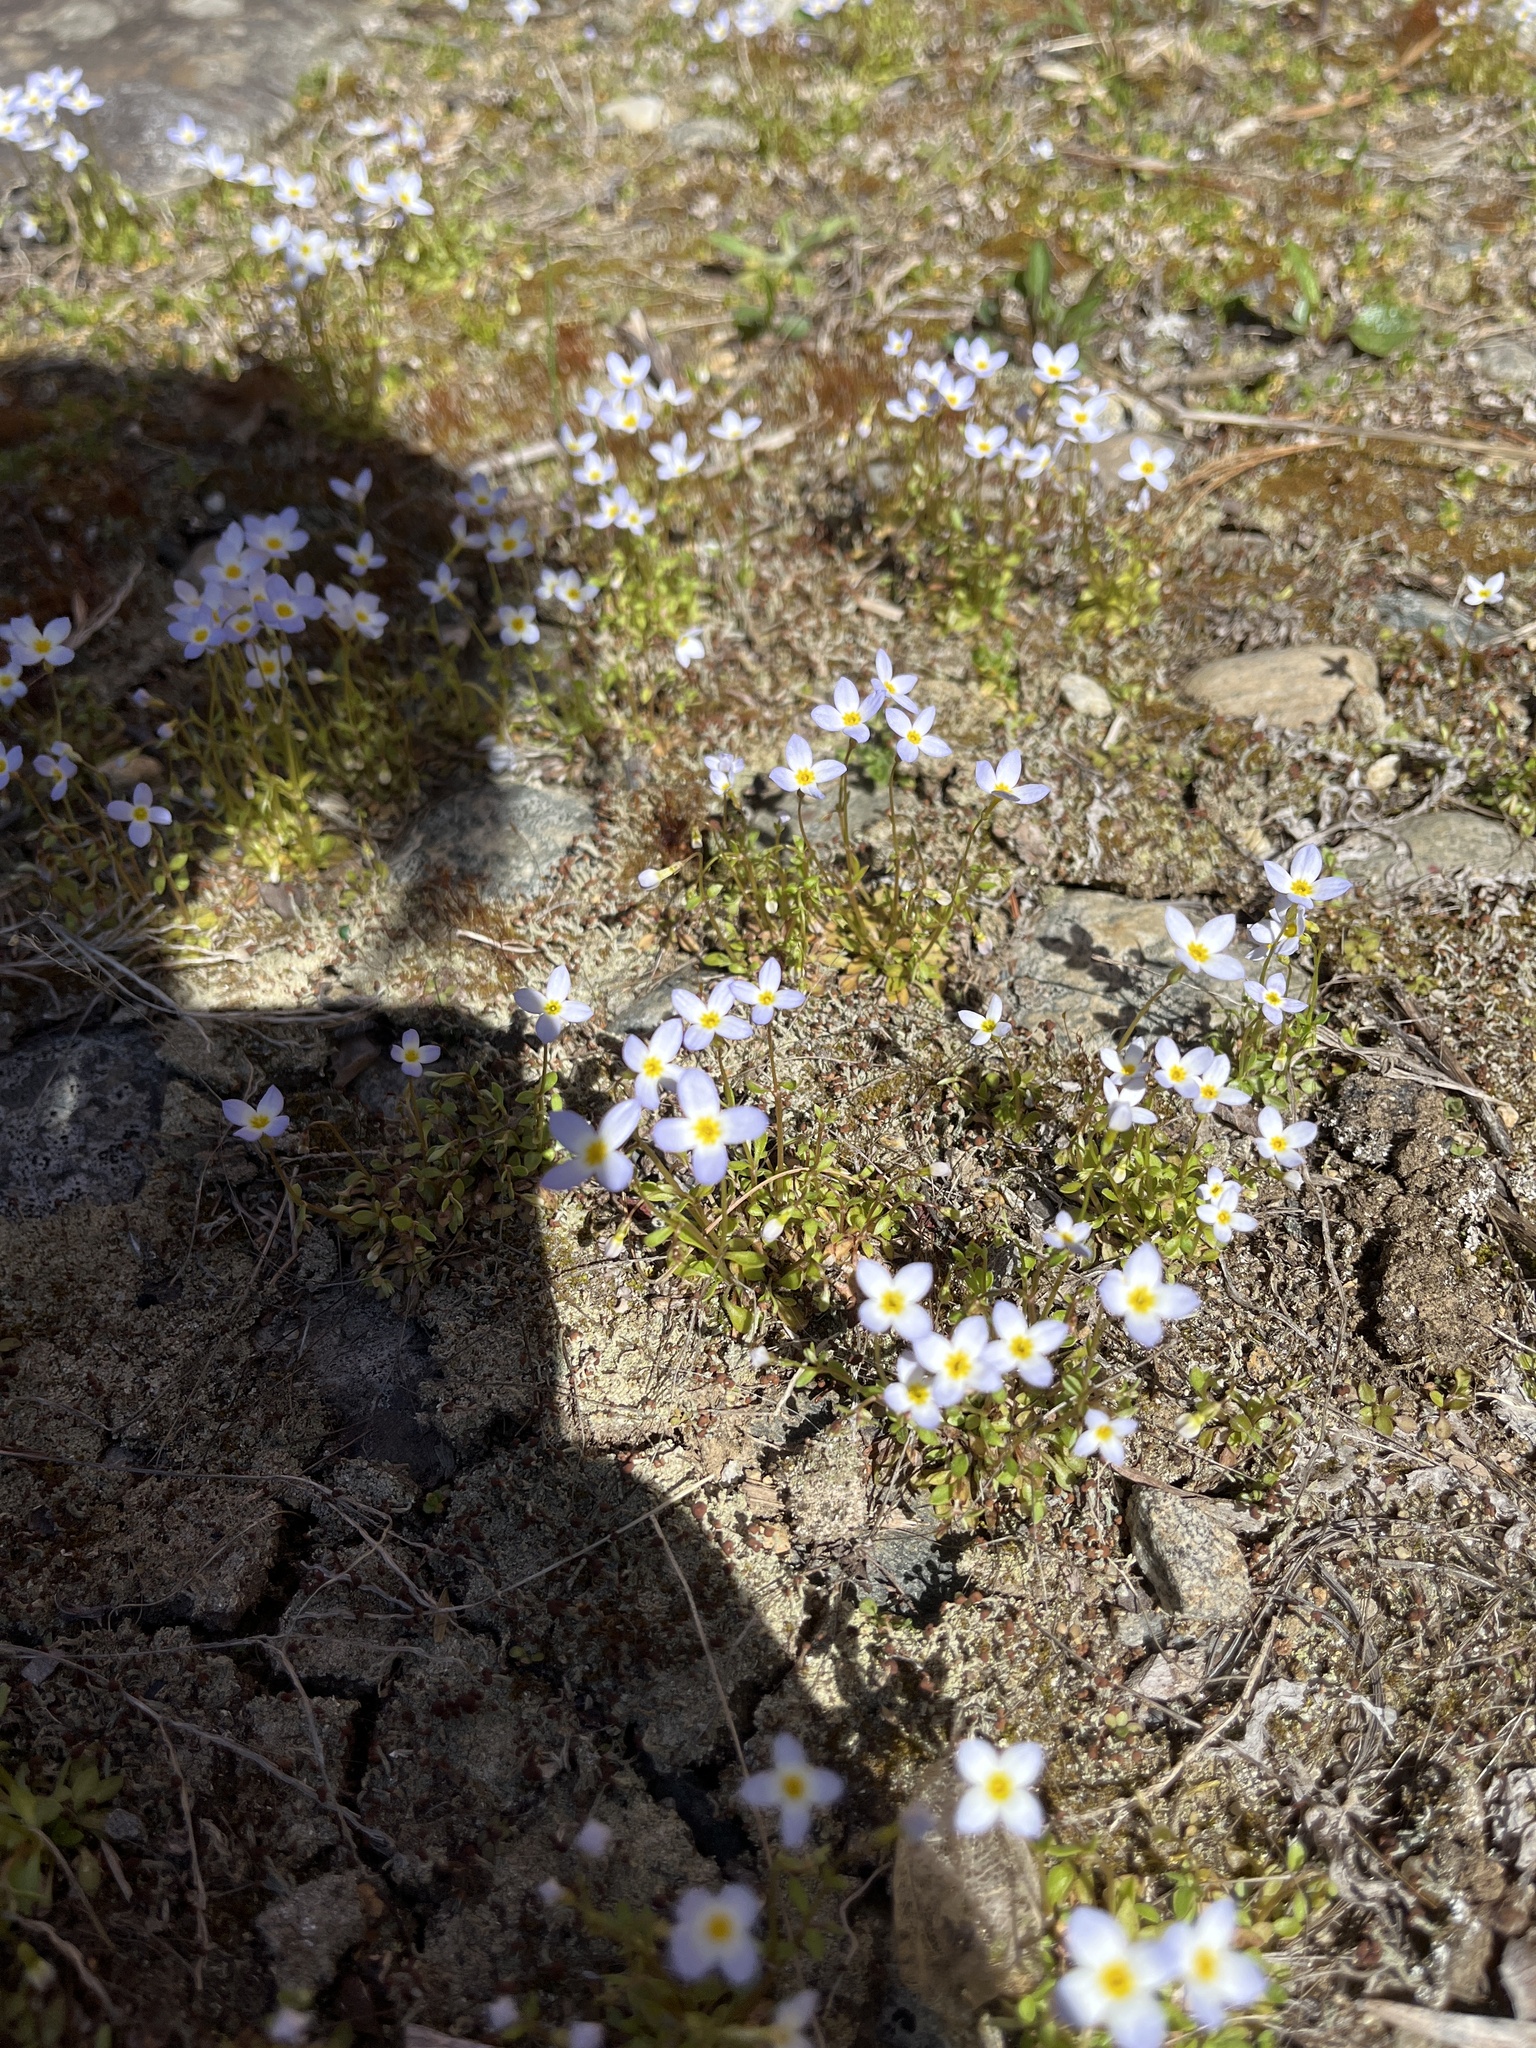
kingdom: Plantae
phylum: Tracheophyta
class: Magnoliopsida
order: Gentianales
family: Rubiaceae
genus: Houstonia
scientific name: Houstonia caerulea
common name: Bluets
